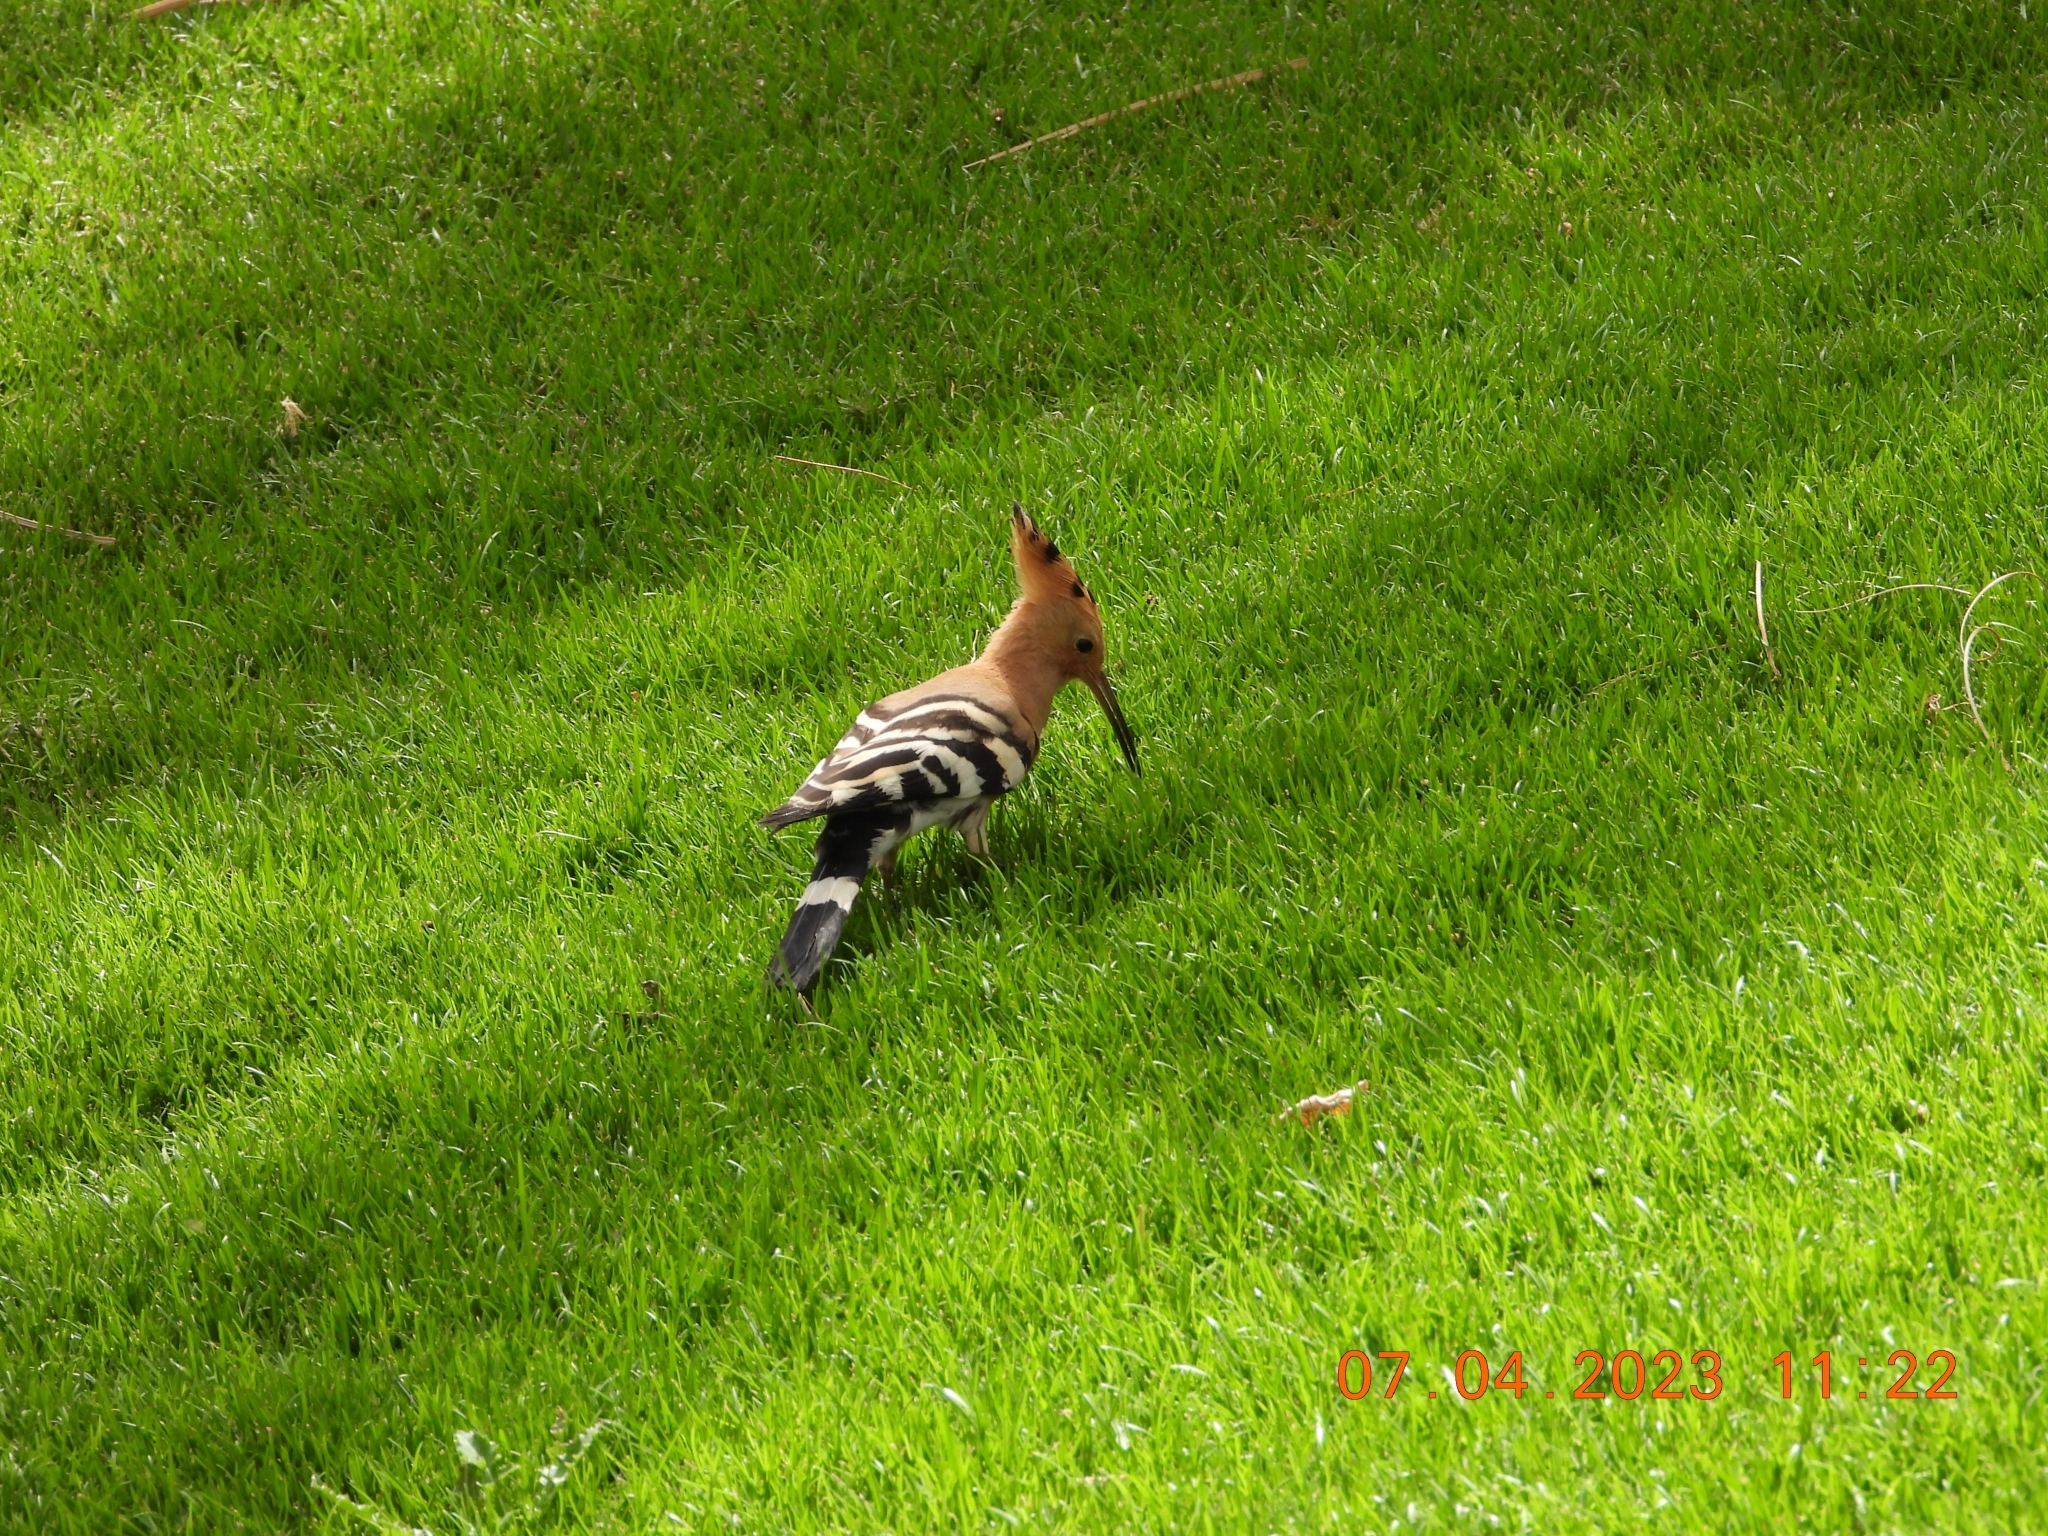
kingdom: Animalia
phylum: Chordata
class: Aves
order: Bucerotiformes
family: Upupidae
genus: Upupa
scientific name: Upupa epops
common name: Eurasian hoopoe
